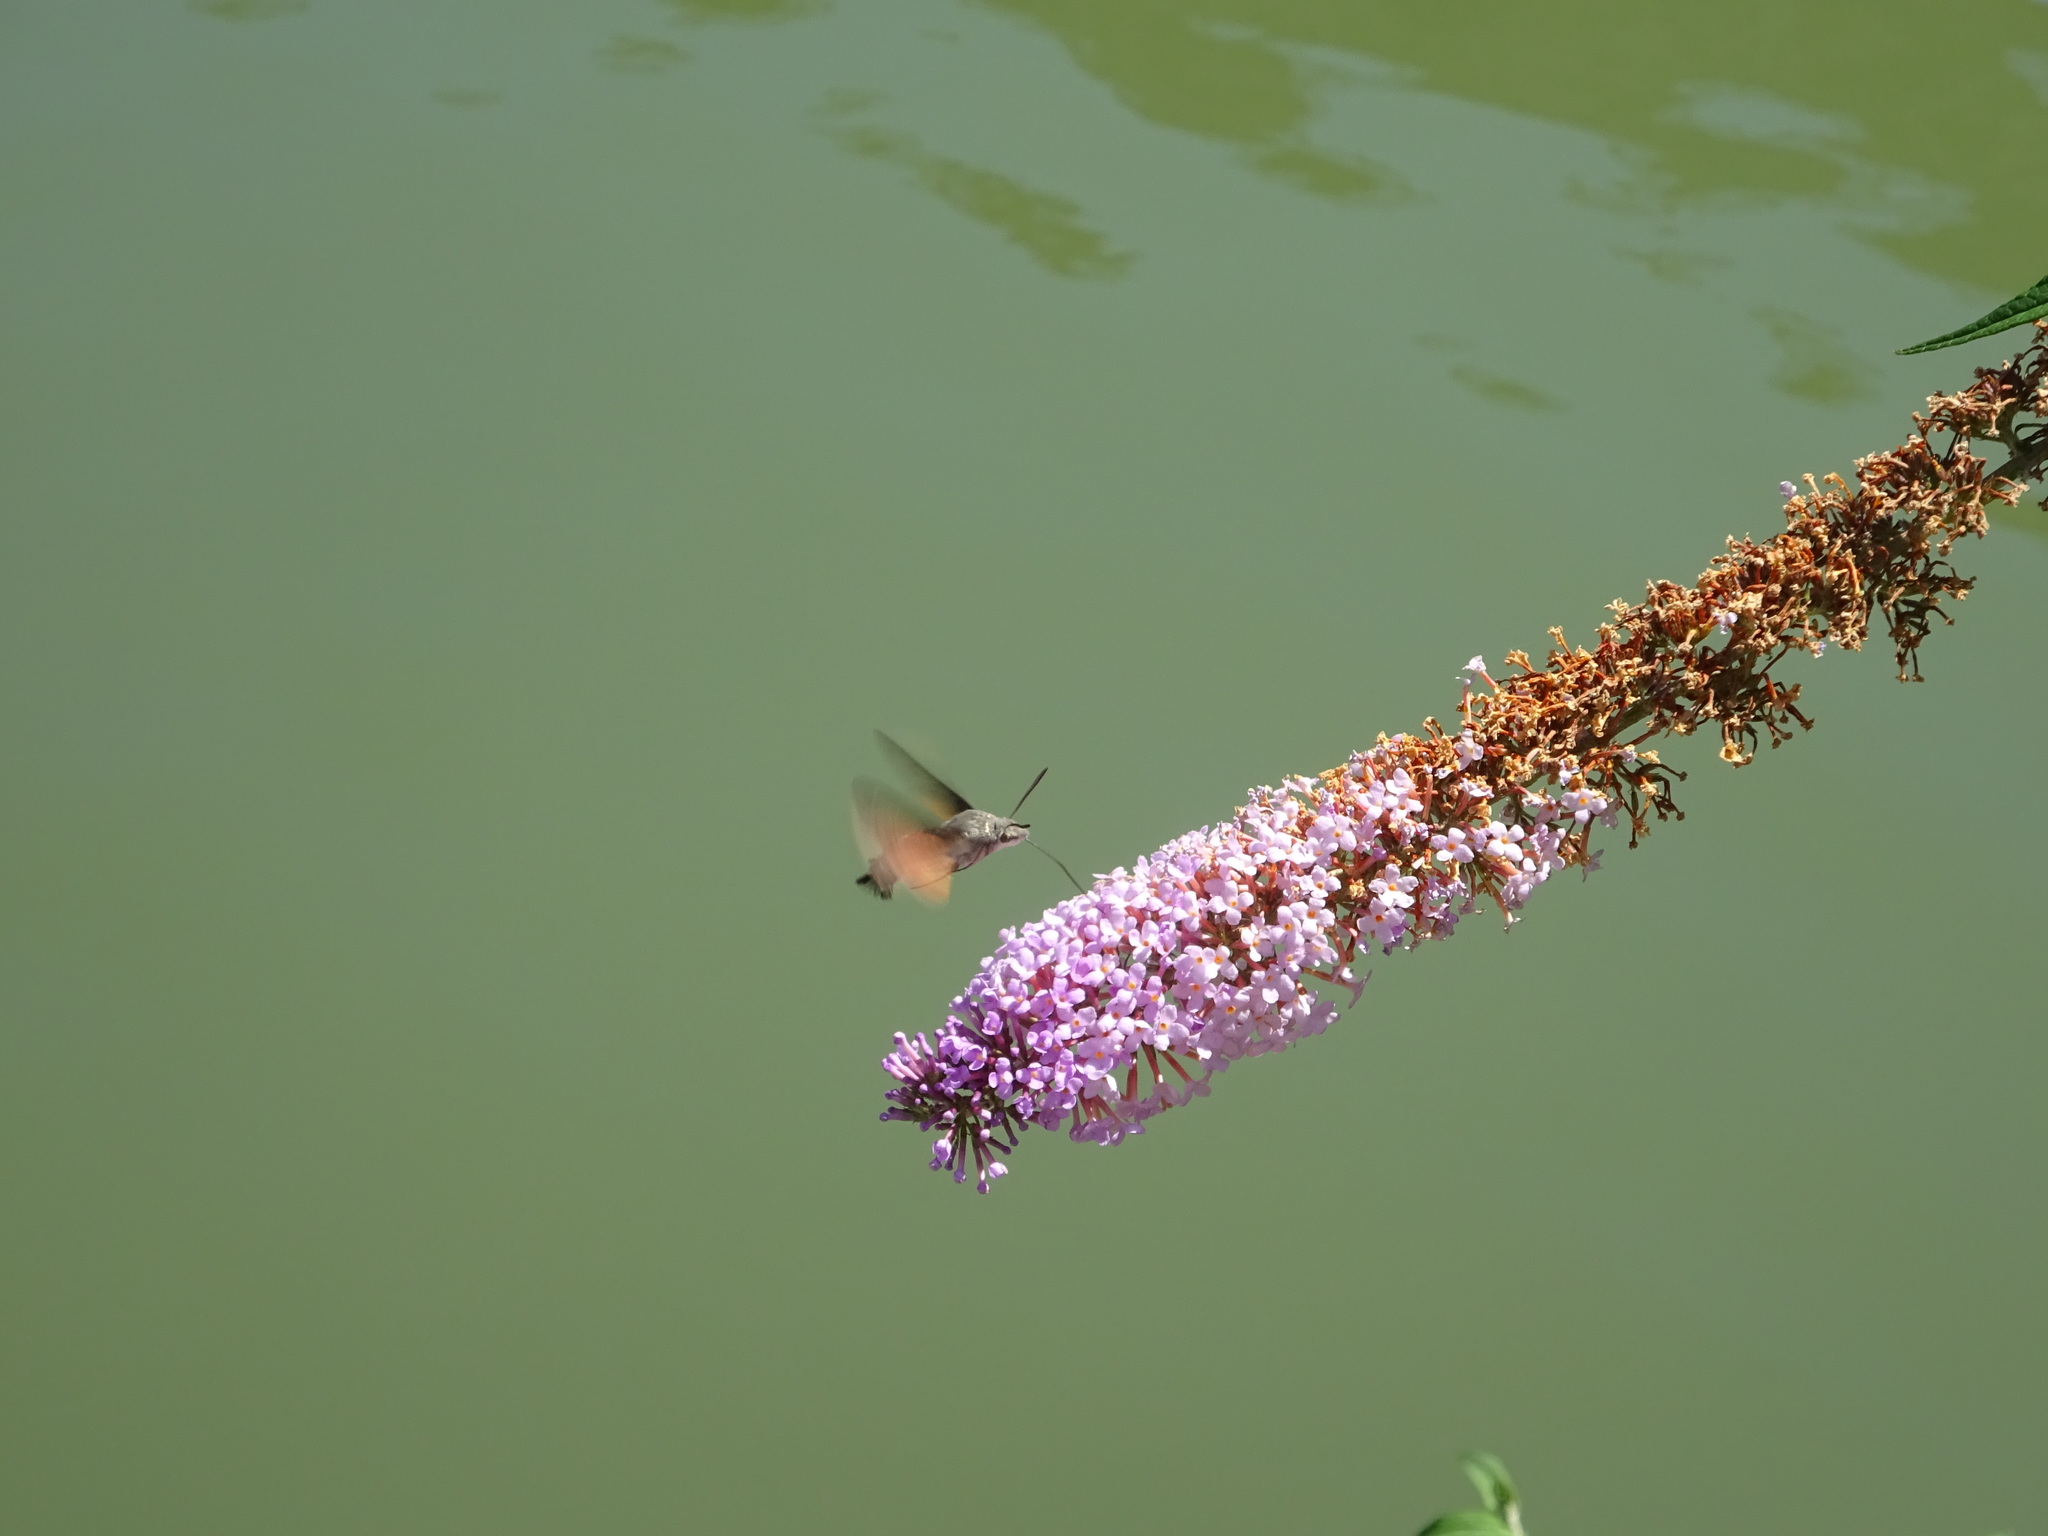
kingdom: Animalia
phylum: Arthropoda
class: Insecta
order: Lepidoptera
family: Sphingidae
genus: Macroglossum
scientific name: Macroglossum stellatarum
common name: Humming-bird hawk-moth
